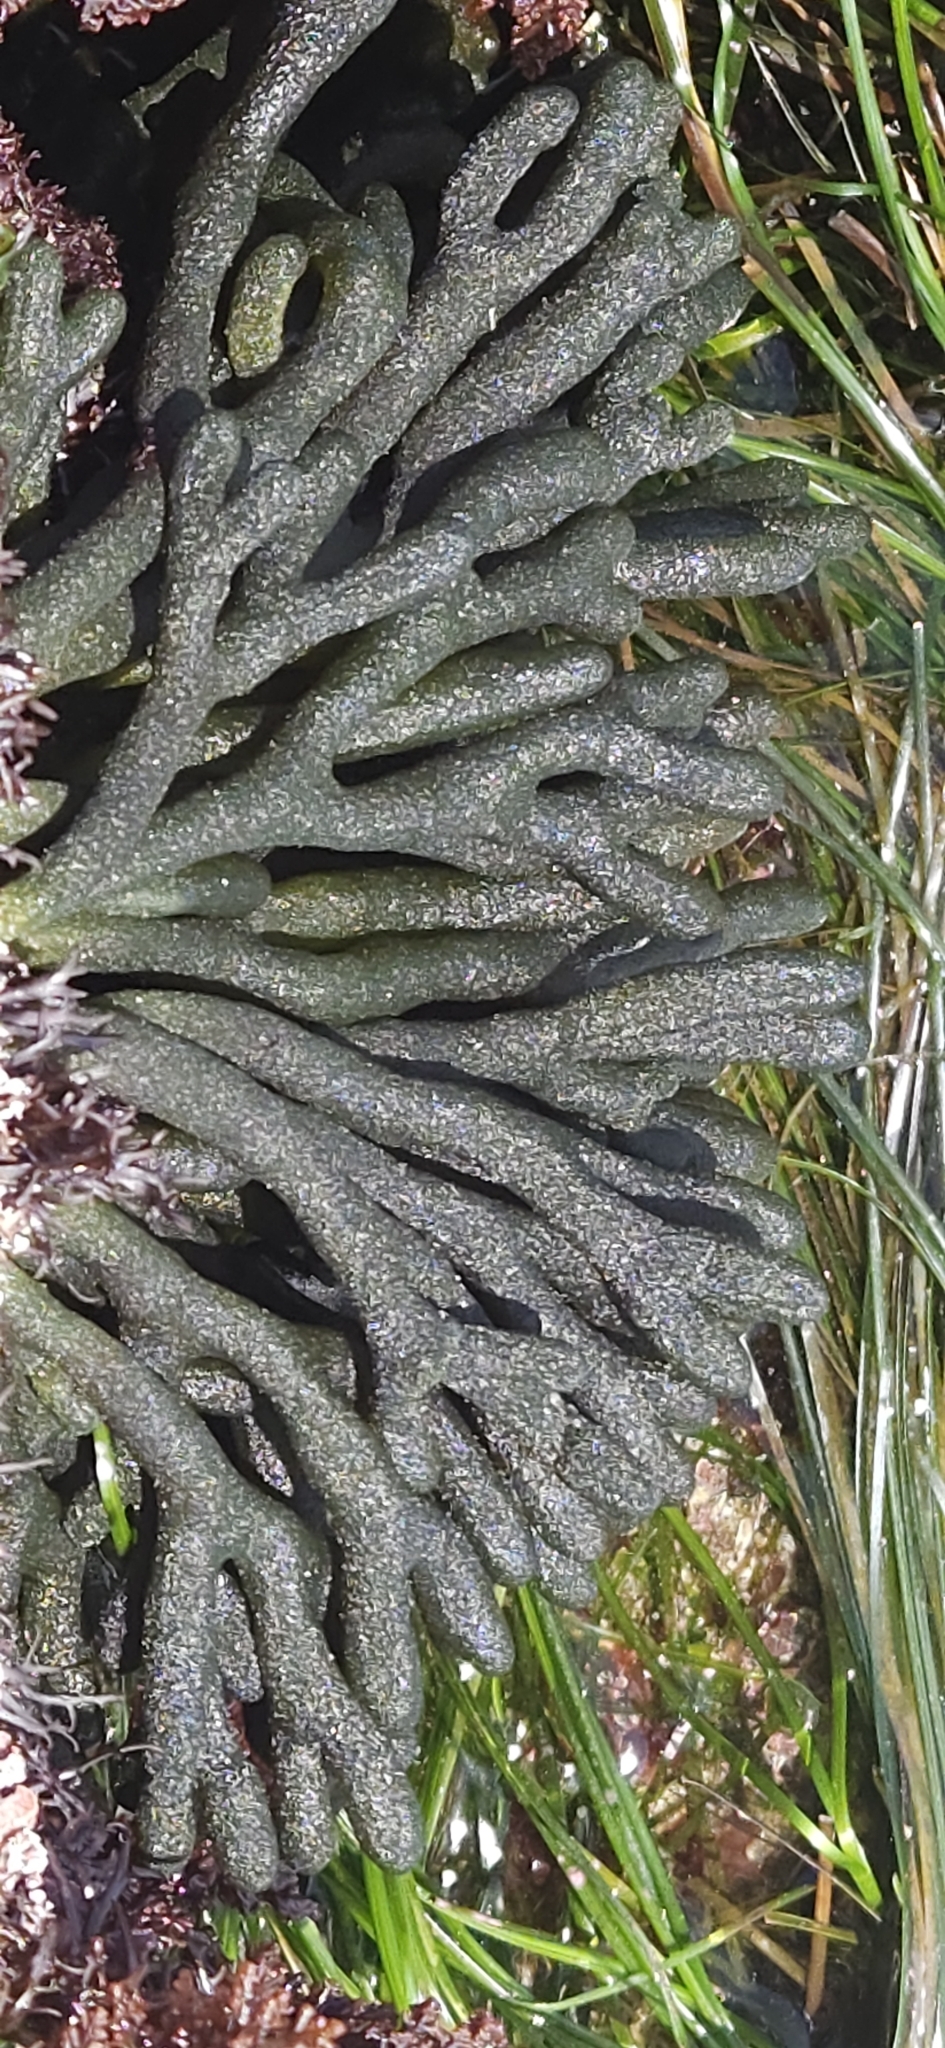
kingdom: Plantae
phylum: Chlorophyta
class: Ulvophyceae
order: Bryopsidales
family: Codiaceae
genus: Codium
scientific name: Codium fragile
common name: Dead man's fingers
